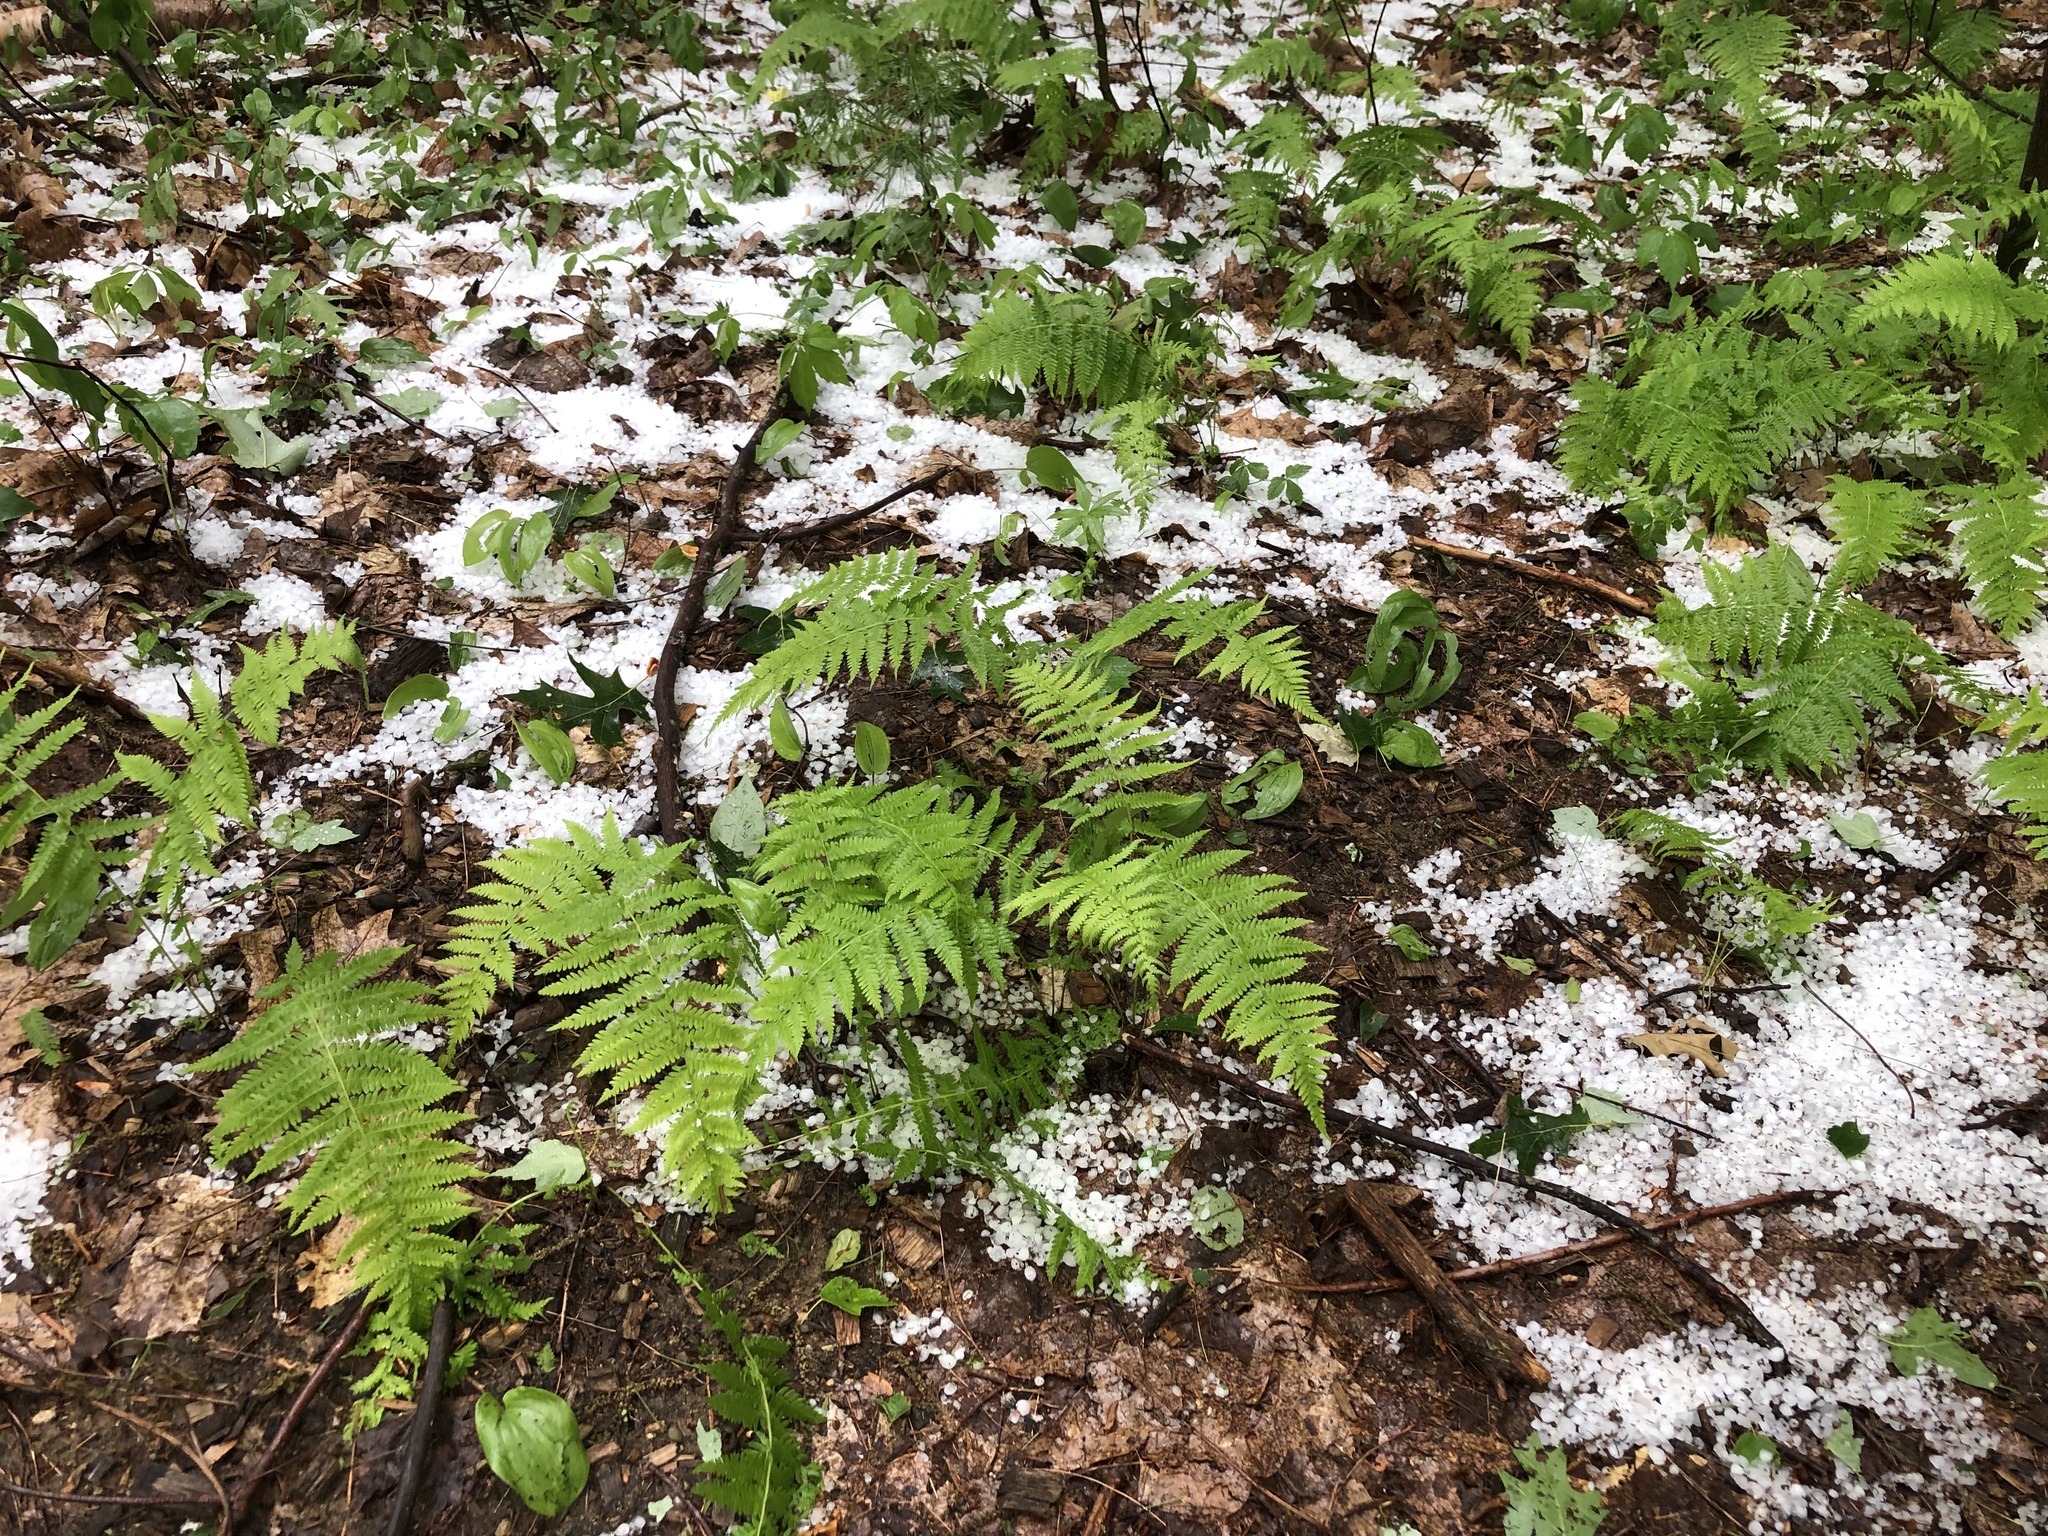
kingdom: Plantae
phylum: Tracheophyta
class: Polypodiopsida
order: Polypodiales
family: Thelypteridaceae
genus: Amauropelta
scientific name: Amauropelta noveboracensis
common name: New york fern
